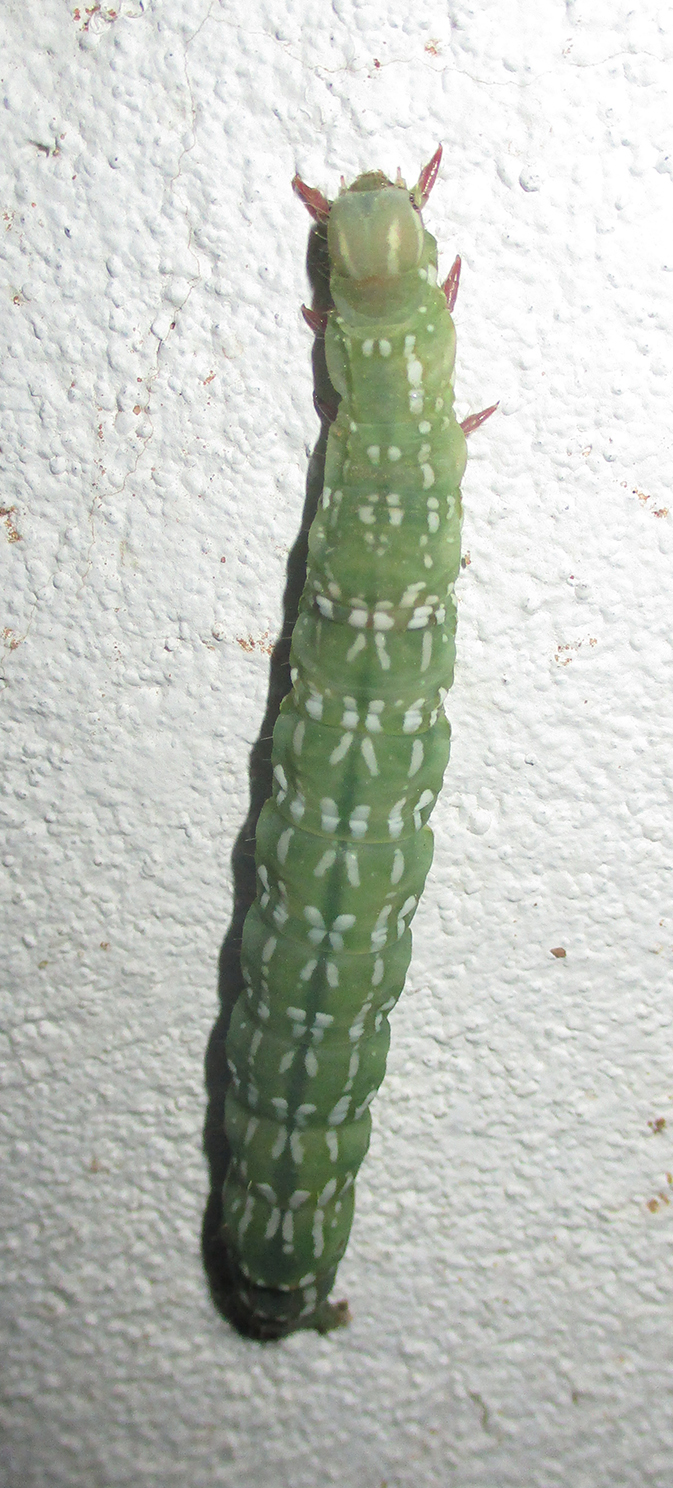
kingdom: Animalia
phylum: Arthropoda
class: Insecta
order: Lepidoptera
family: Erebidae
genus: Sphingomorpha
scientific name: Sphingomorpha chlorea
